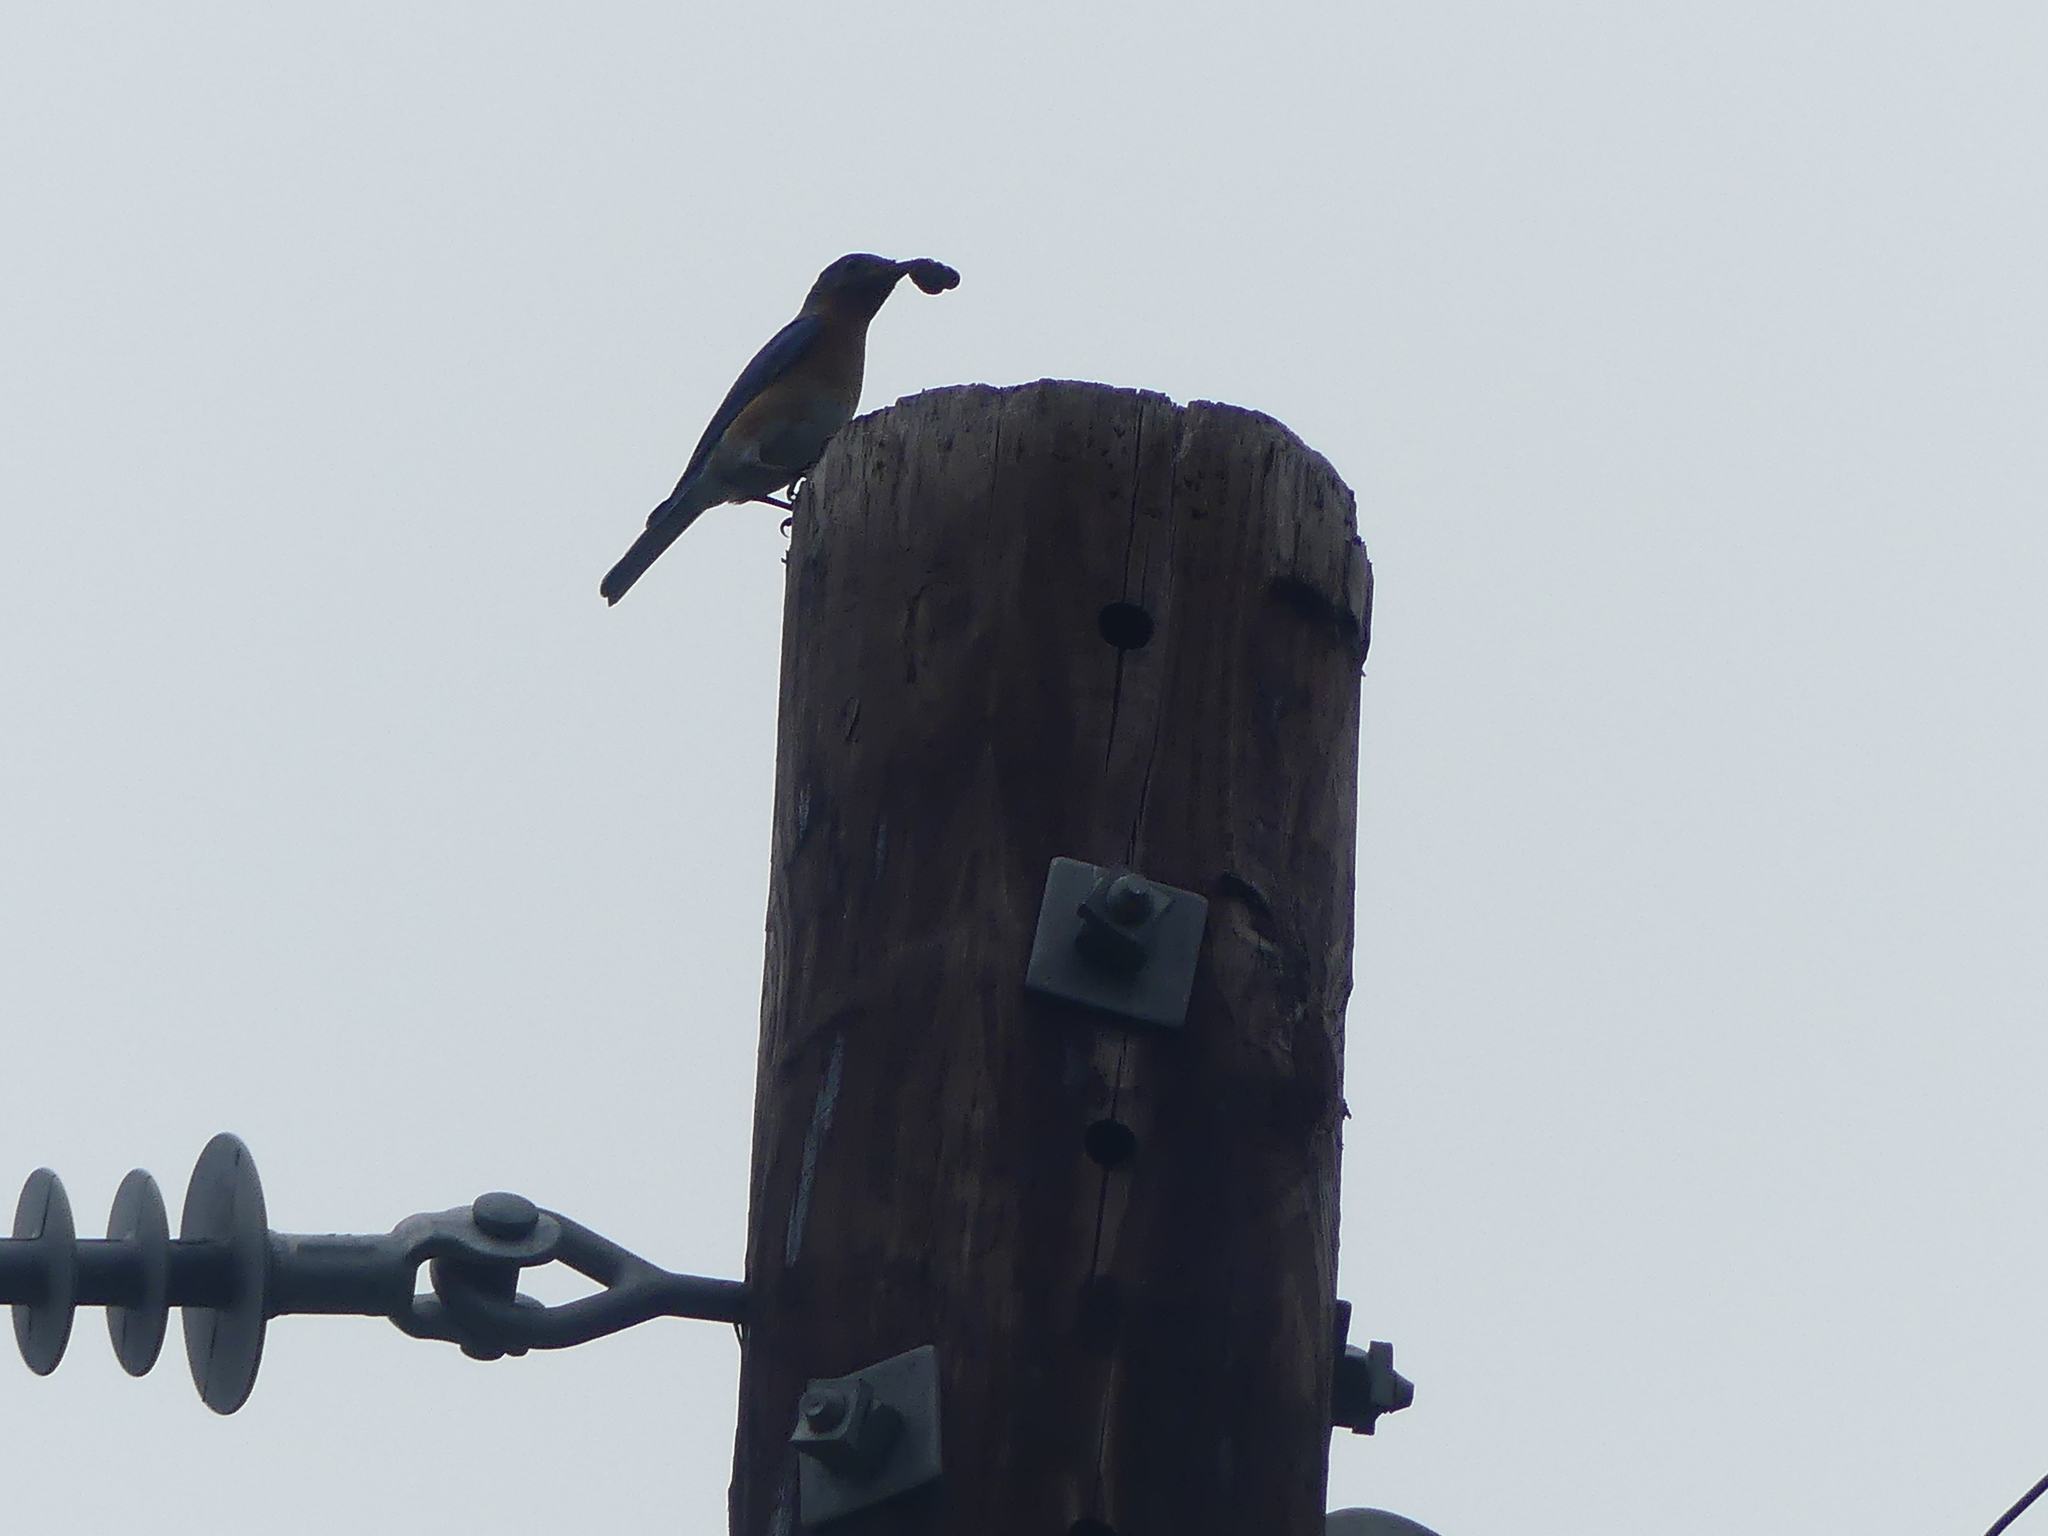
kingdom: Animalia
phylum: Chordata
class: Aves
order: Passeriformes
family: Turdidae
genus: Sialia
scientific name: Sialia sialis
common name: Eastern bluebird
